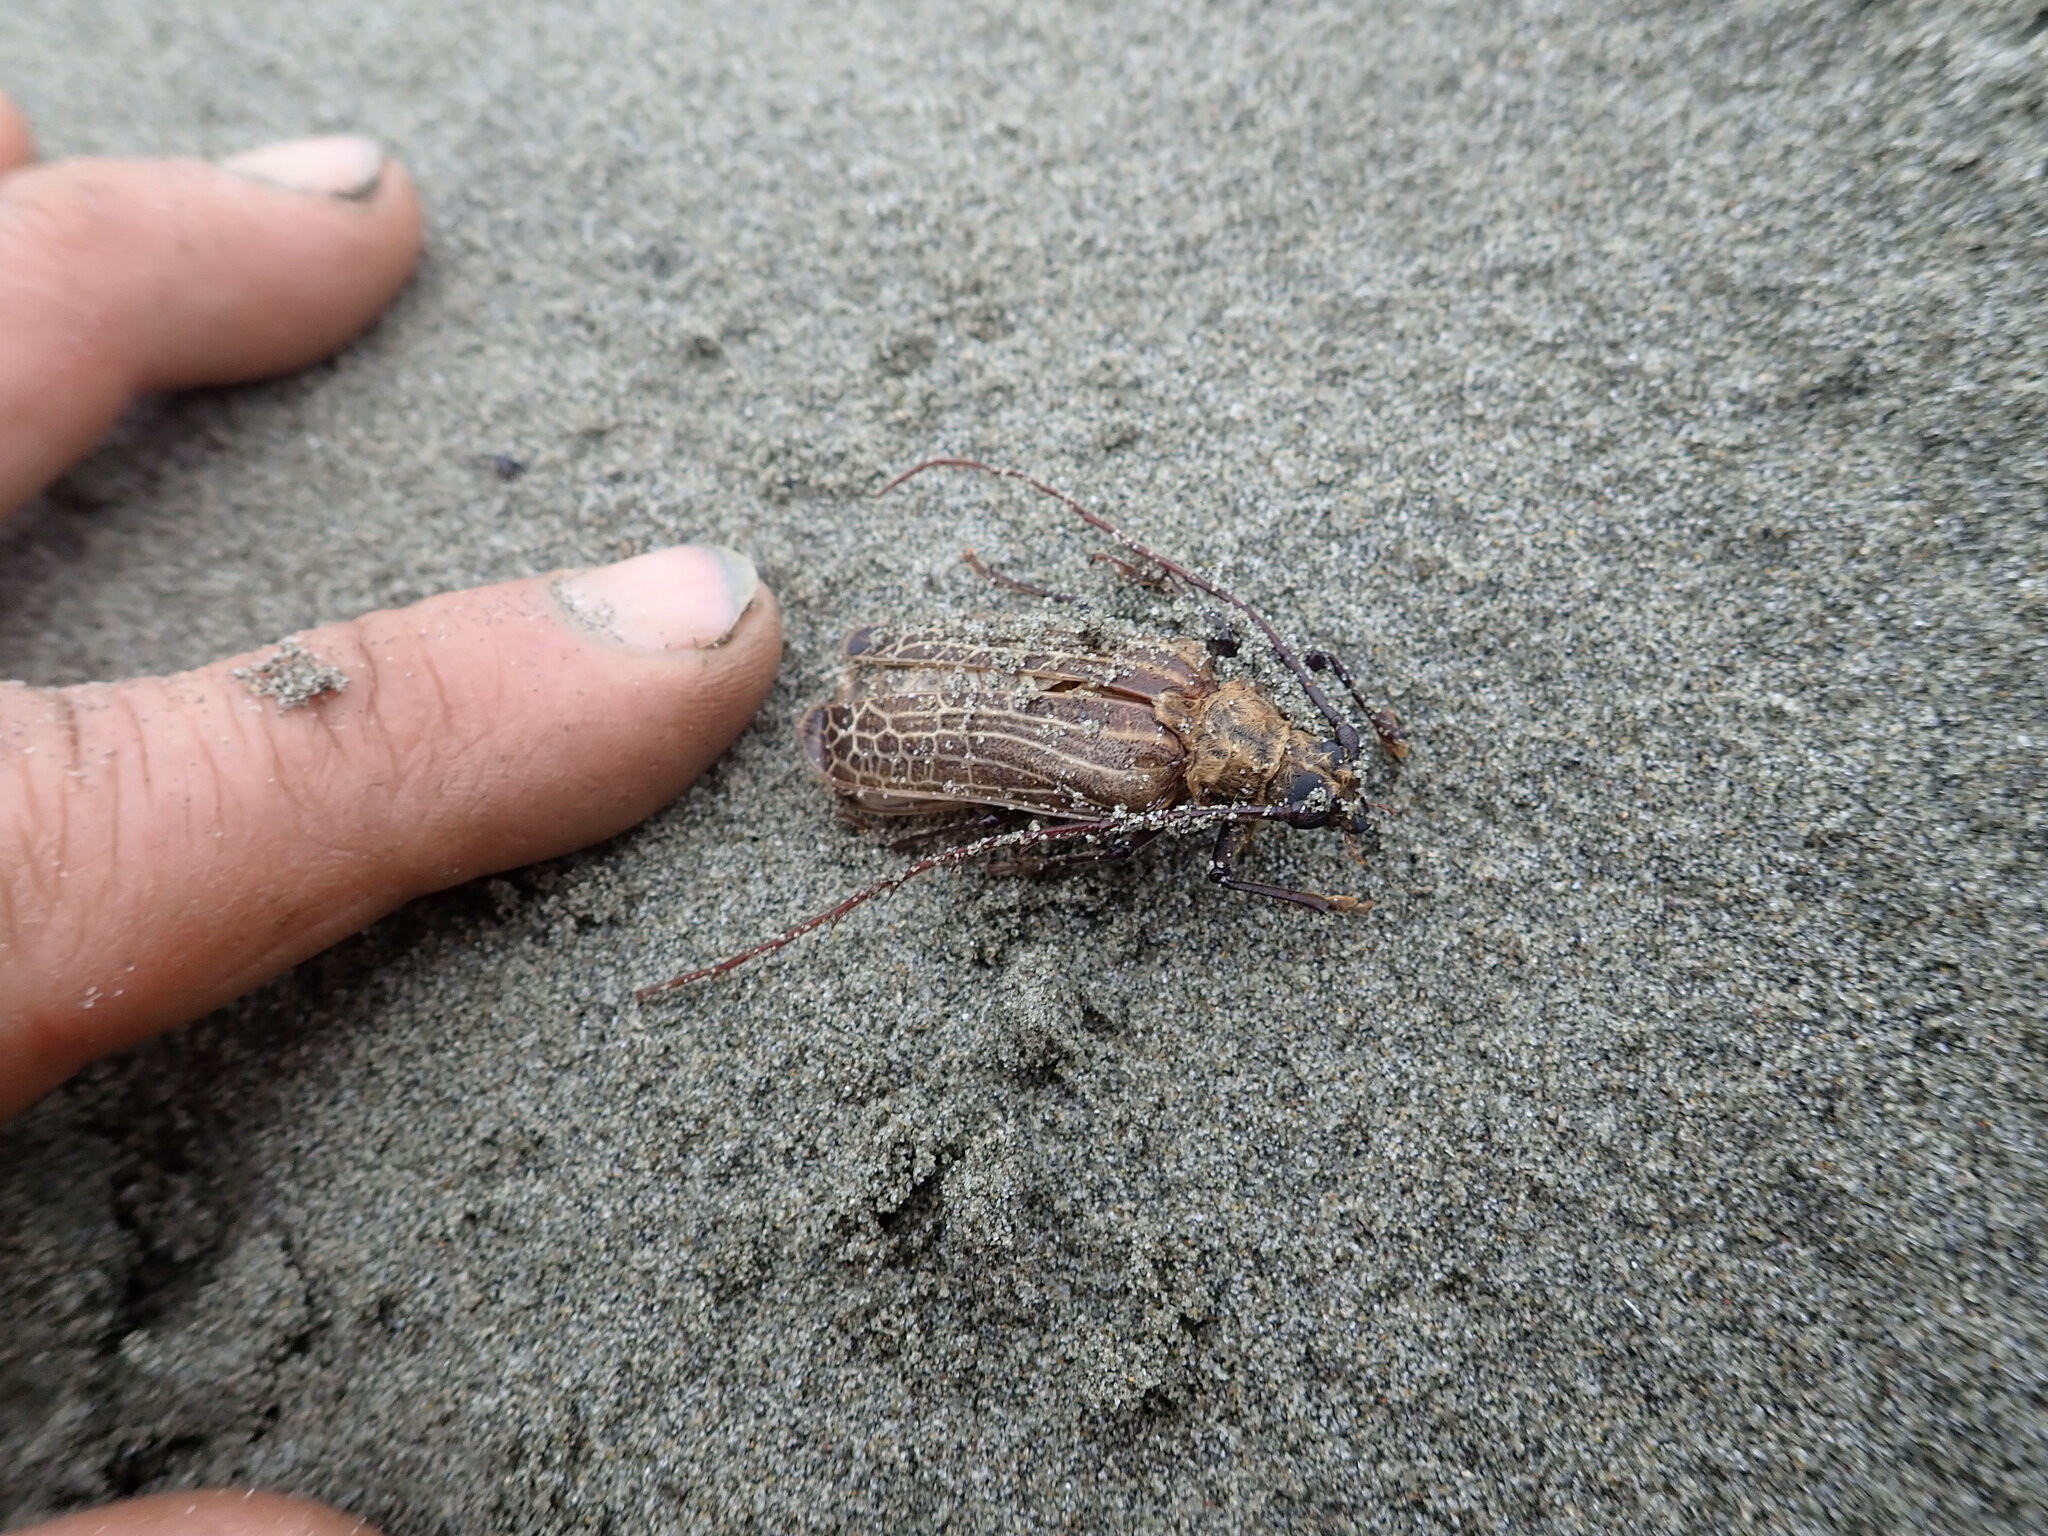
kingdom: Animalia
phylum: Arthropoda
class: Insecta
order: Coleoptera
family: Cerambycidae
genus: Prionoplus
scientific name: Prionoplus reticularis
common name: Huhu beetle
